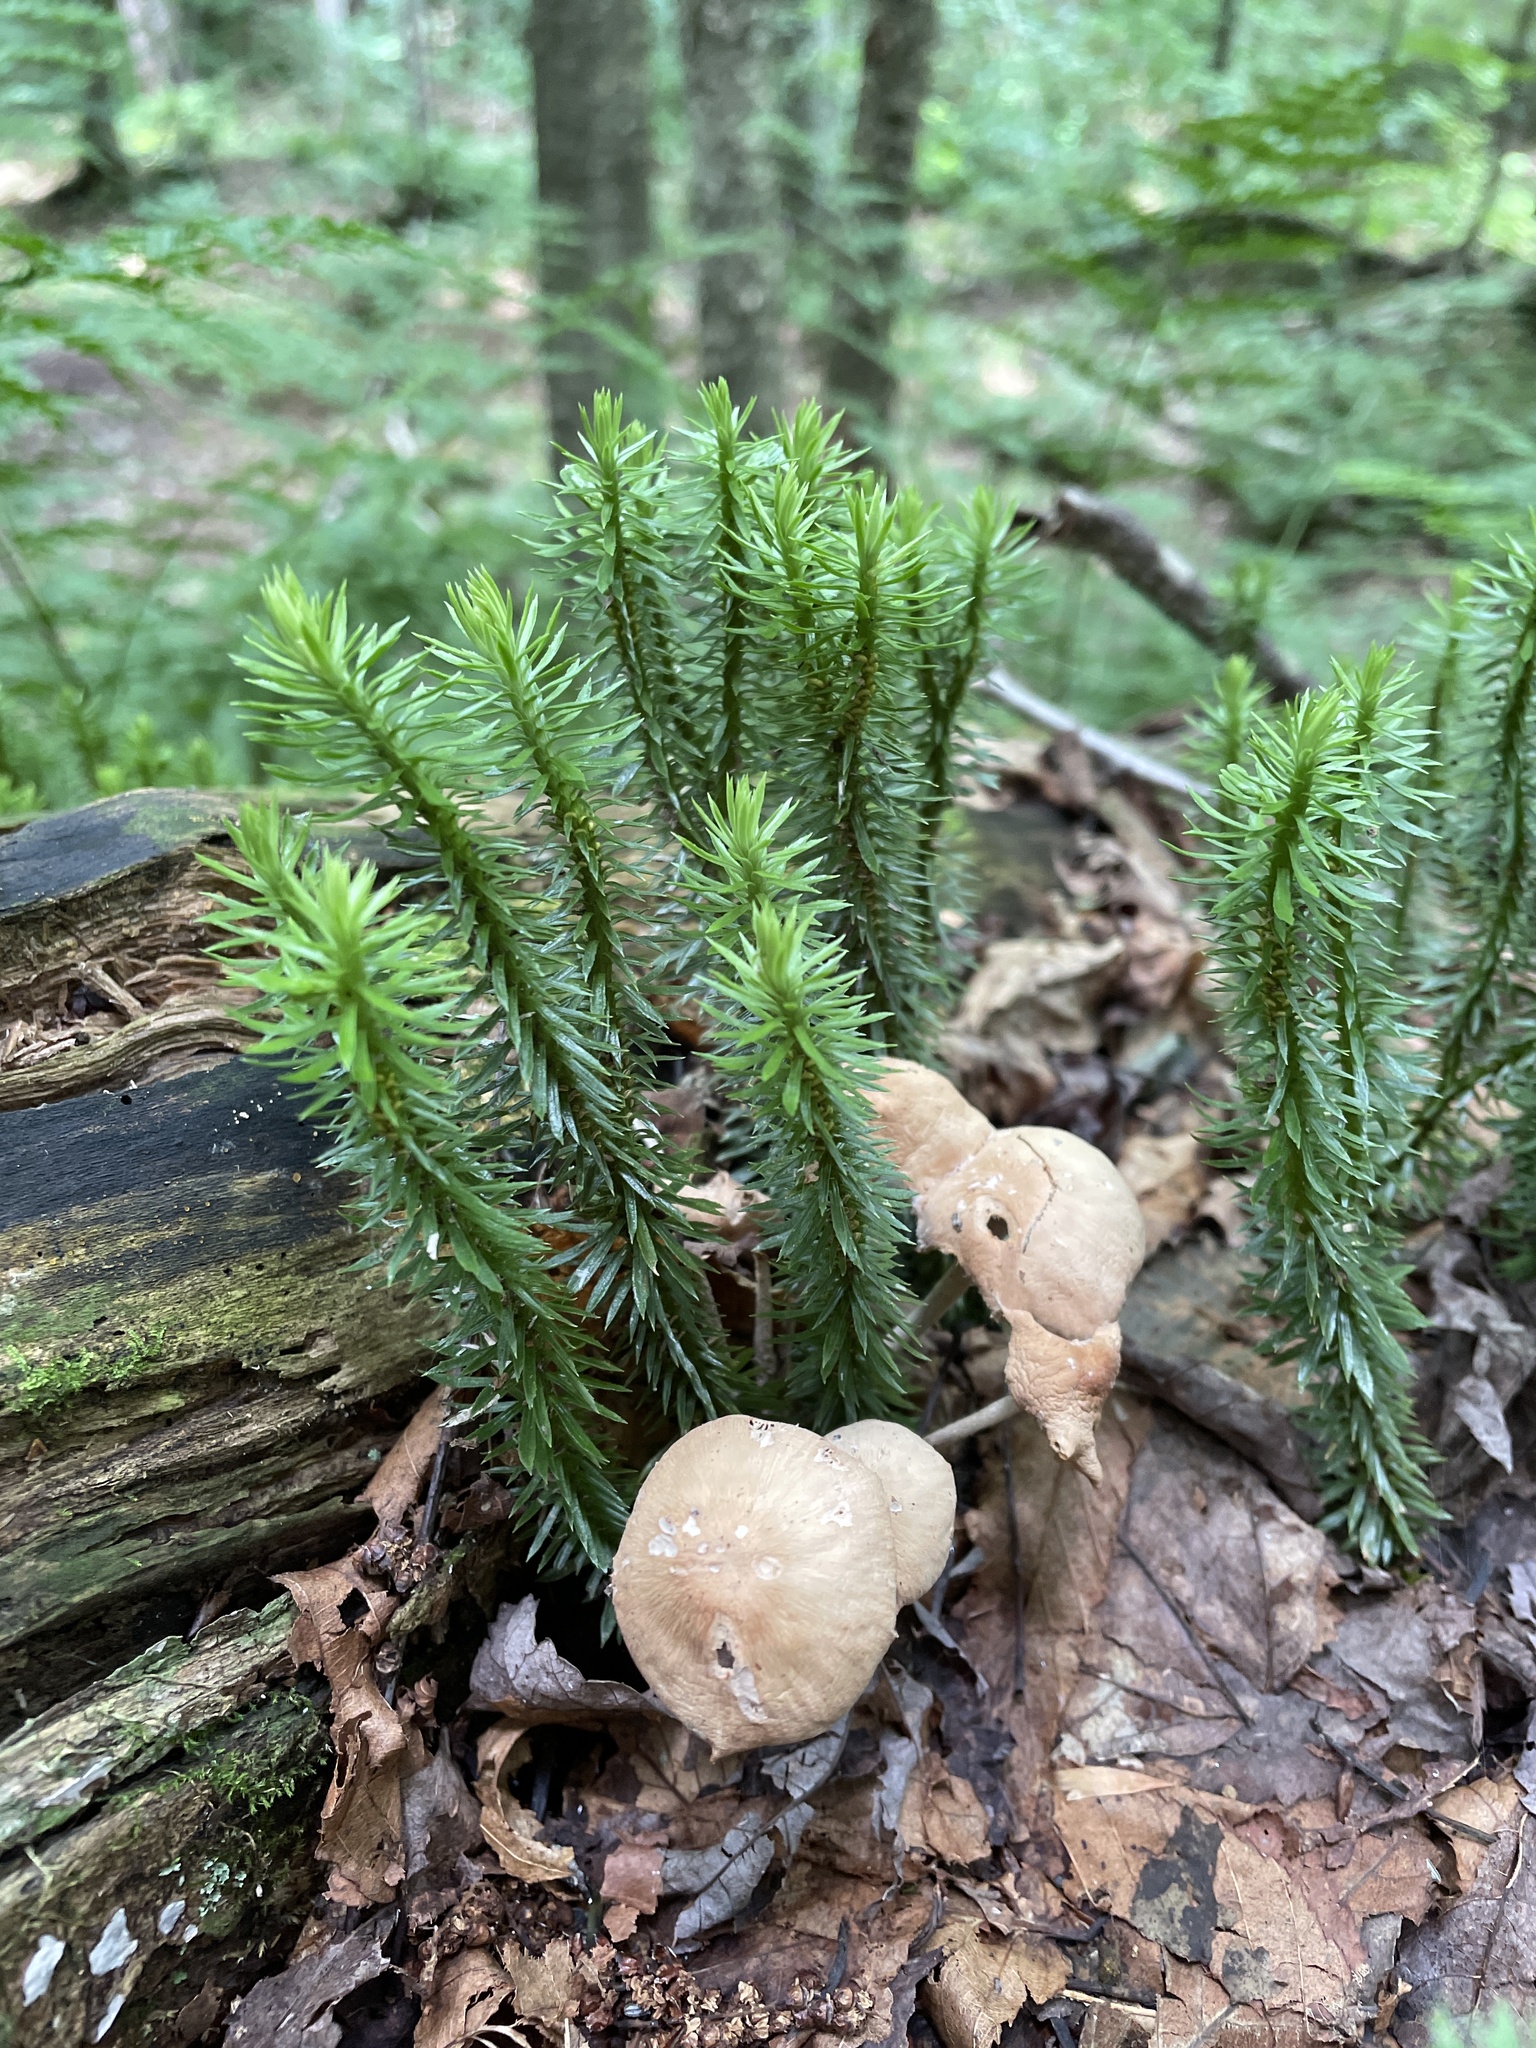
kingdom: Plantae
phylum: Tracheophyta
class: Lycopodiopsida
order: Lycopodiales
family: Lycopodiaceae
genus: Huperzia
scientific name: Huperzia lucidula
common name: Shining clubmoss
